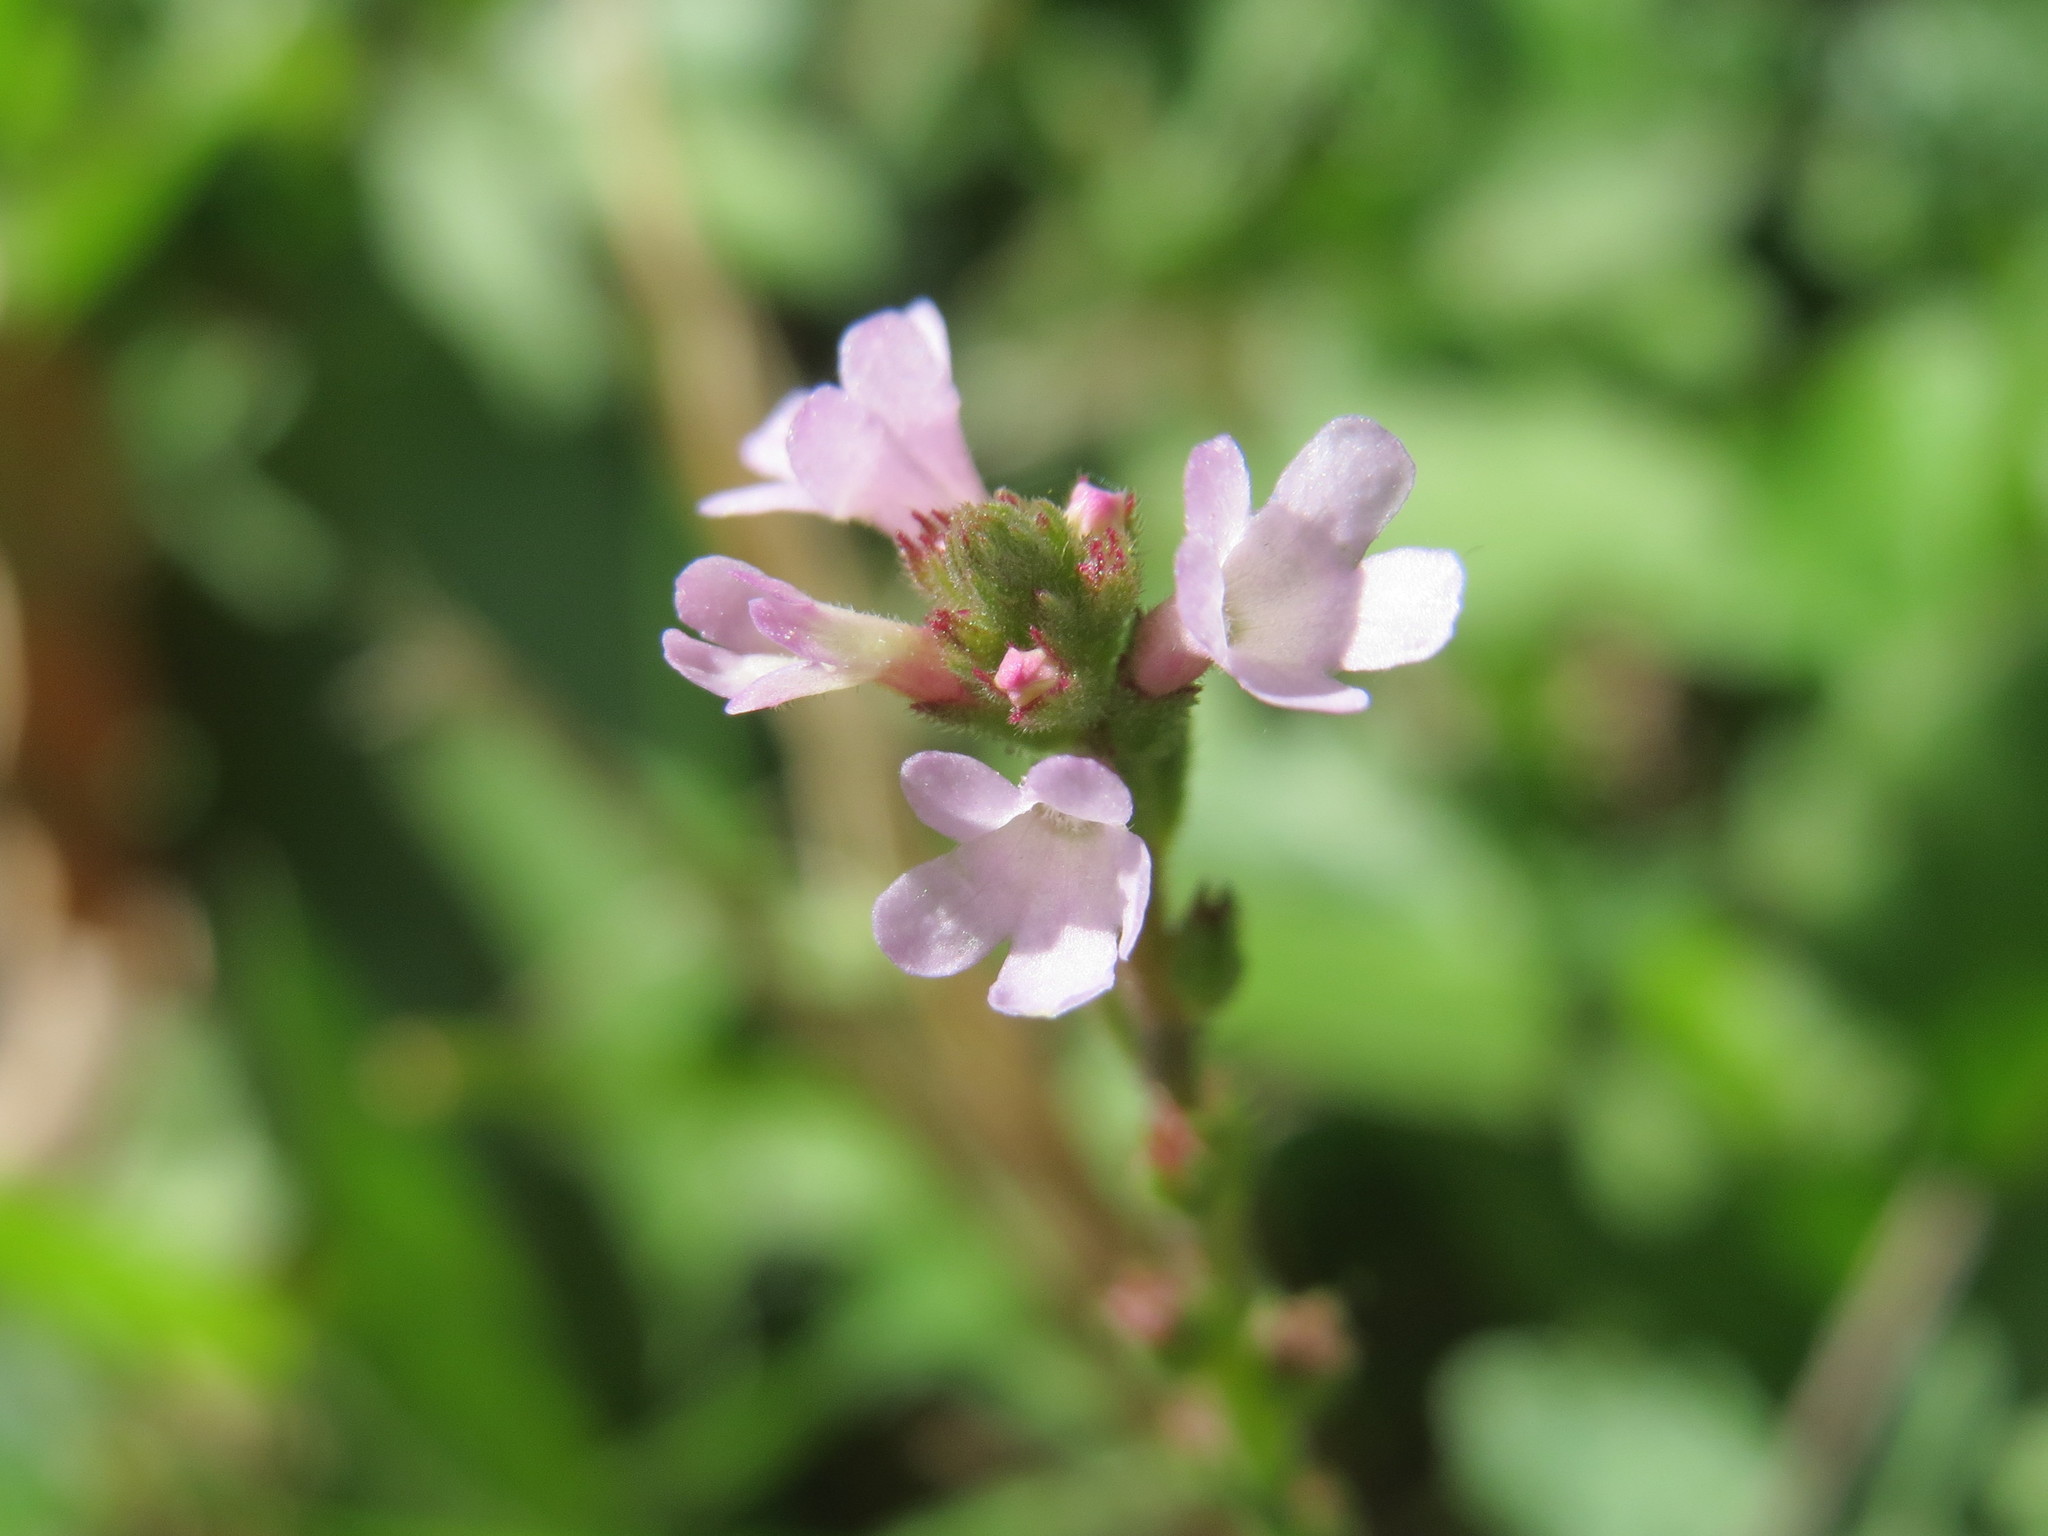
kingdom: Plantae
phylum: Tracheophyta
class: Magnoliopsida
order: Lamiales
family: Verbenaceae
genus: Verbena
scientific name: Verbena officinalis
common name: Vervain
